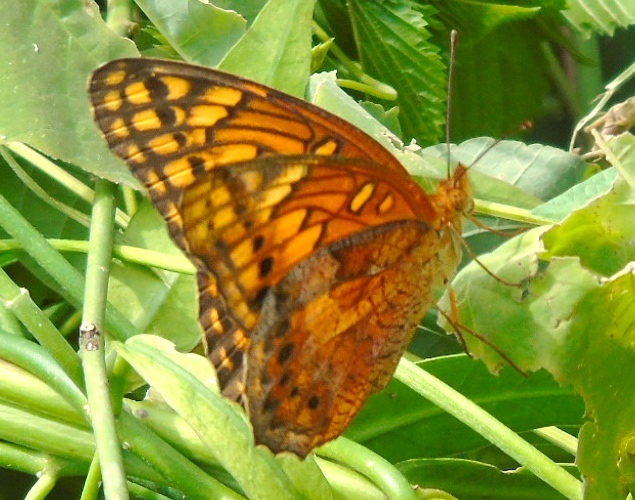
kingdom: Animalia
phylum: Arthropoda
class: Insecta
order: Lepidoptera
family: Nymphalidae
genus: Euptoieta
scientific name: Euptoieta hegesia
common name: Mexican fritillary
